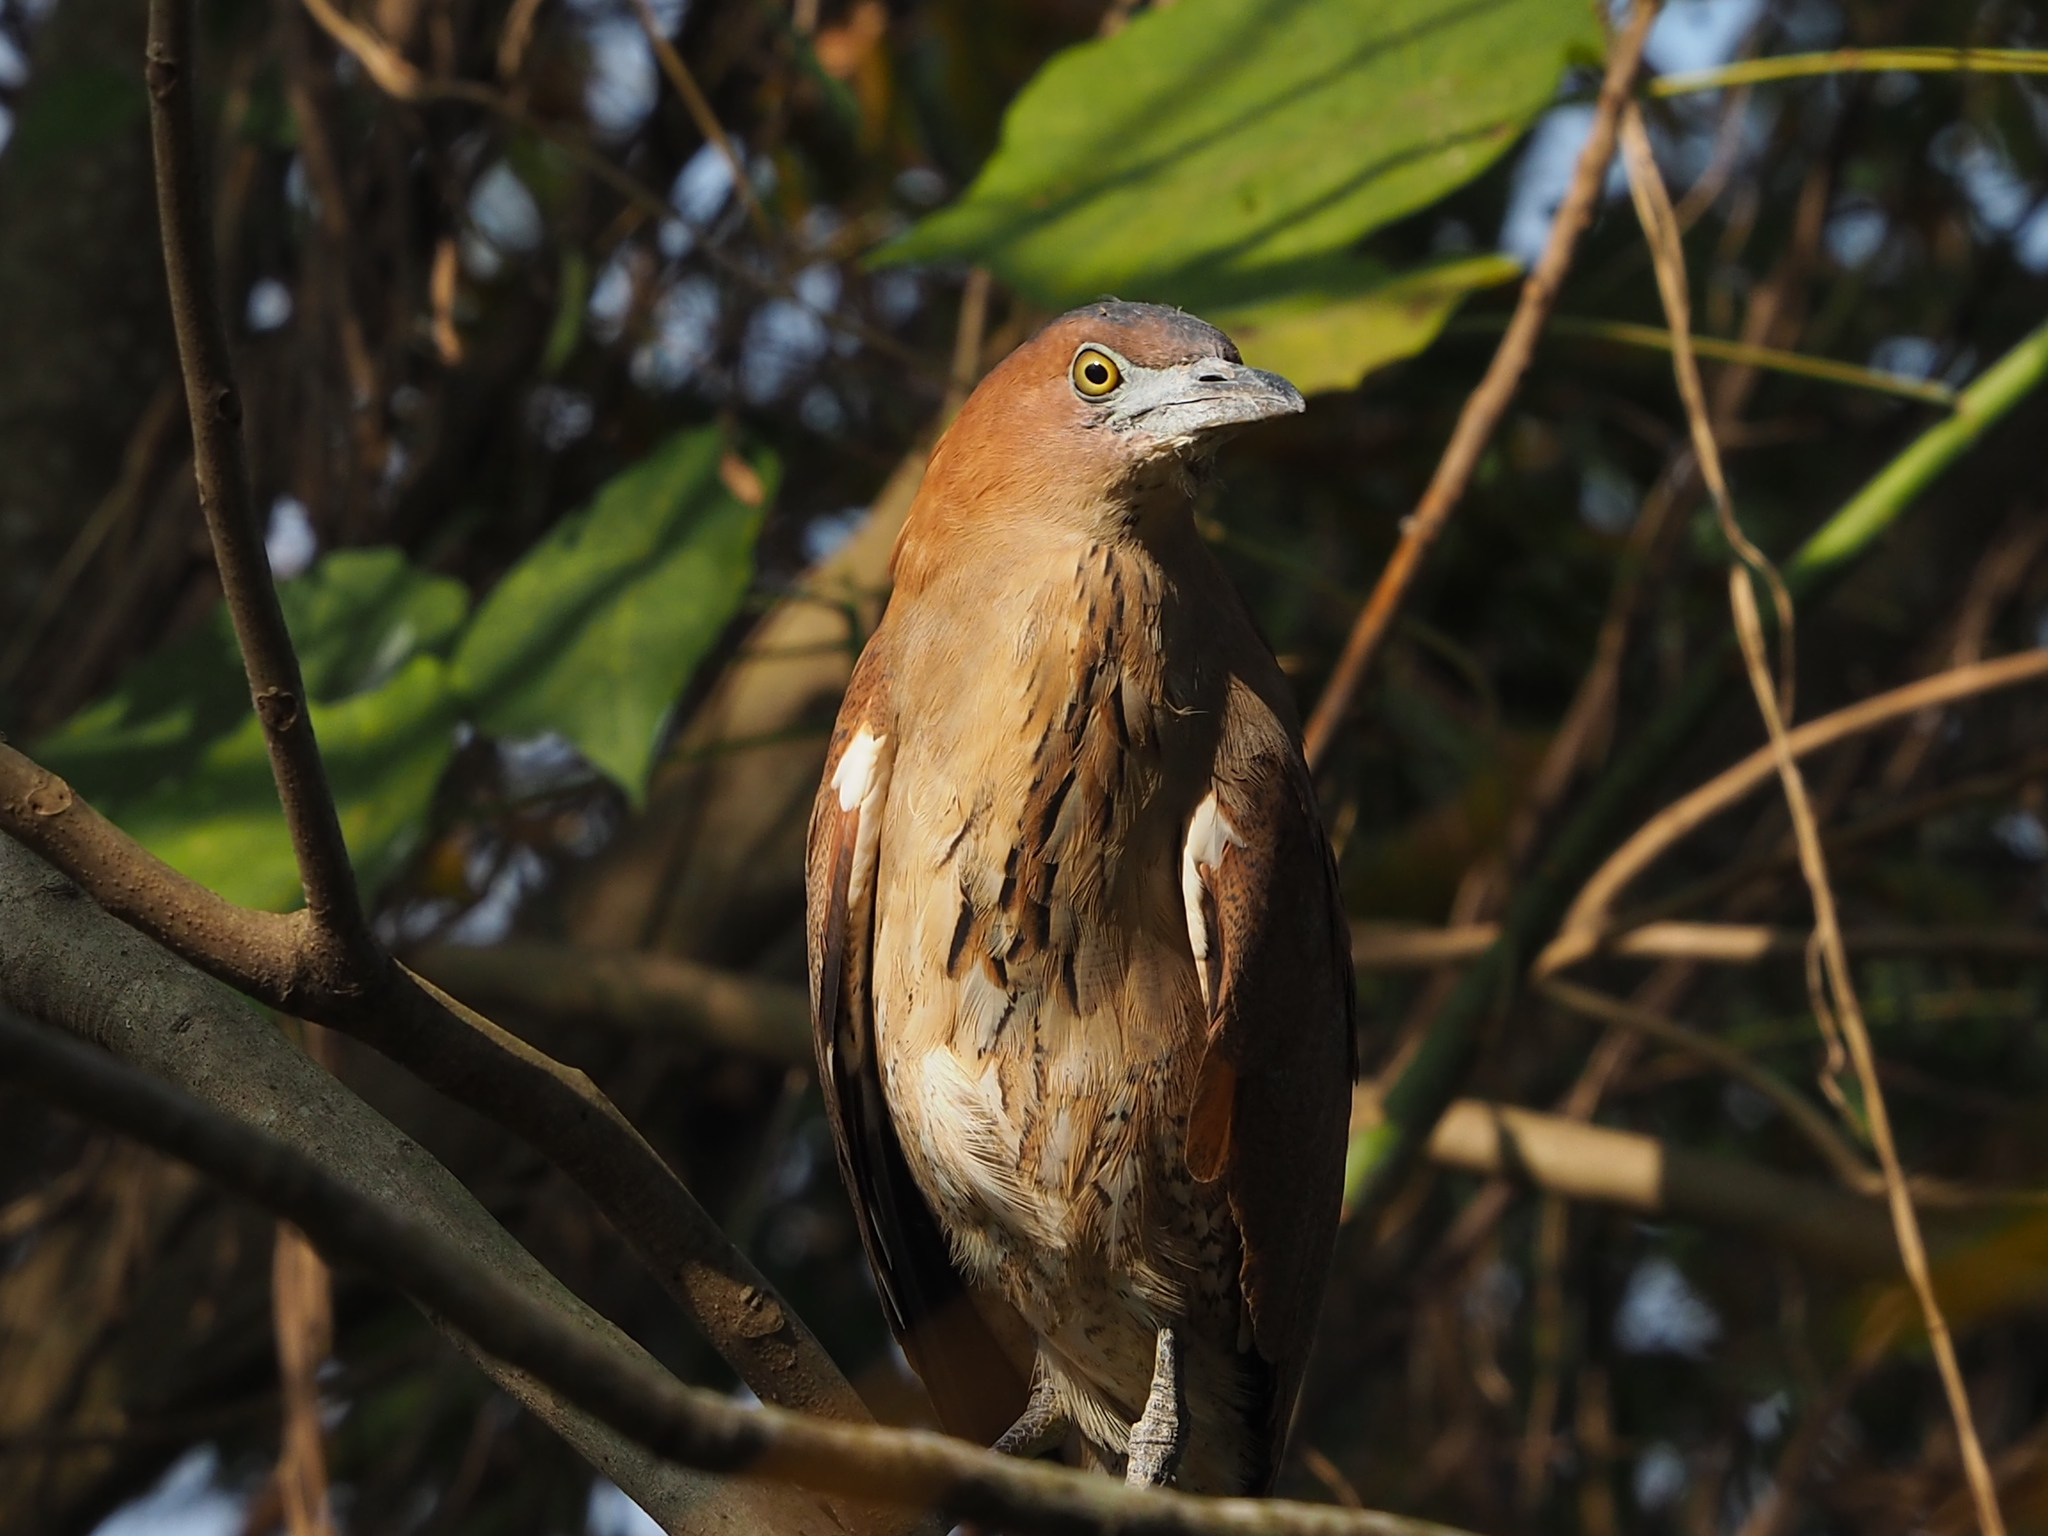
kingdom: Animalia
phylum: Chordata
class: Aves
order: Pelecaniformes
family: Ardeidae
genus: Gorsachius
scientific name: Gorsachius melanolophus
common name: Malayan night heron
